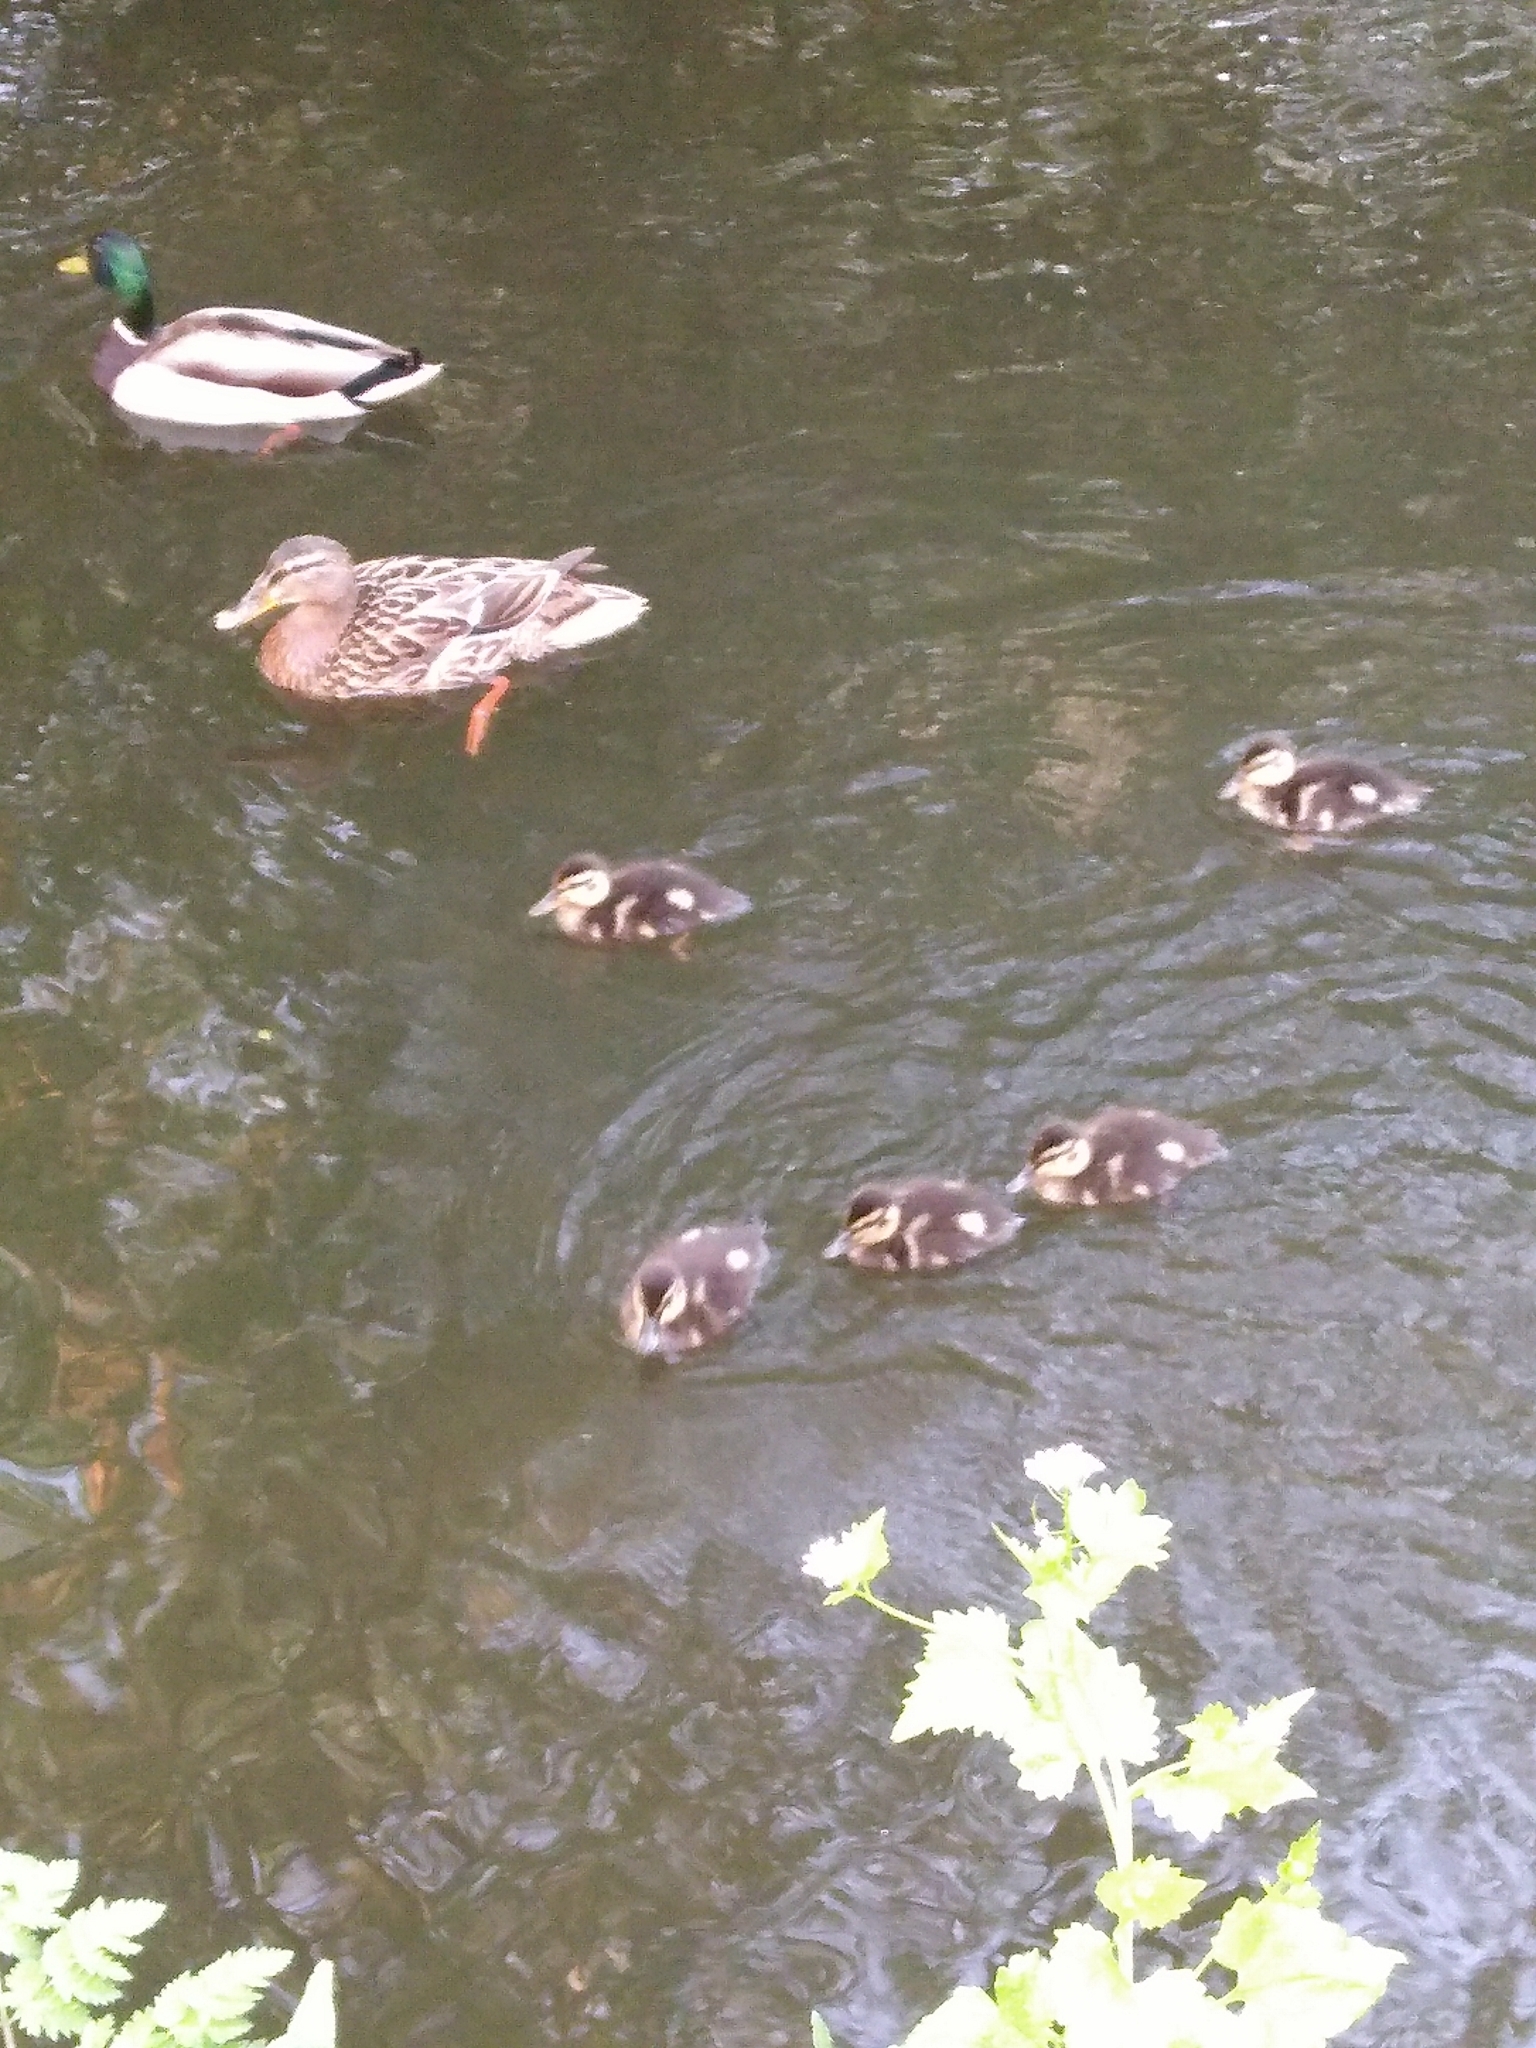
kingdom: Animalia
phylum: Chordata
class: Aves
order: Anseriformes
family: Anatidae
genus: Anas
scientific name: Anas platyrhynchos
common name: Mallard
